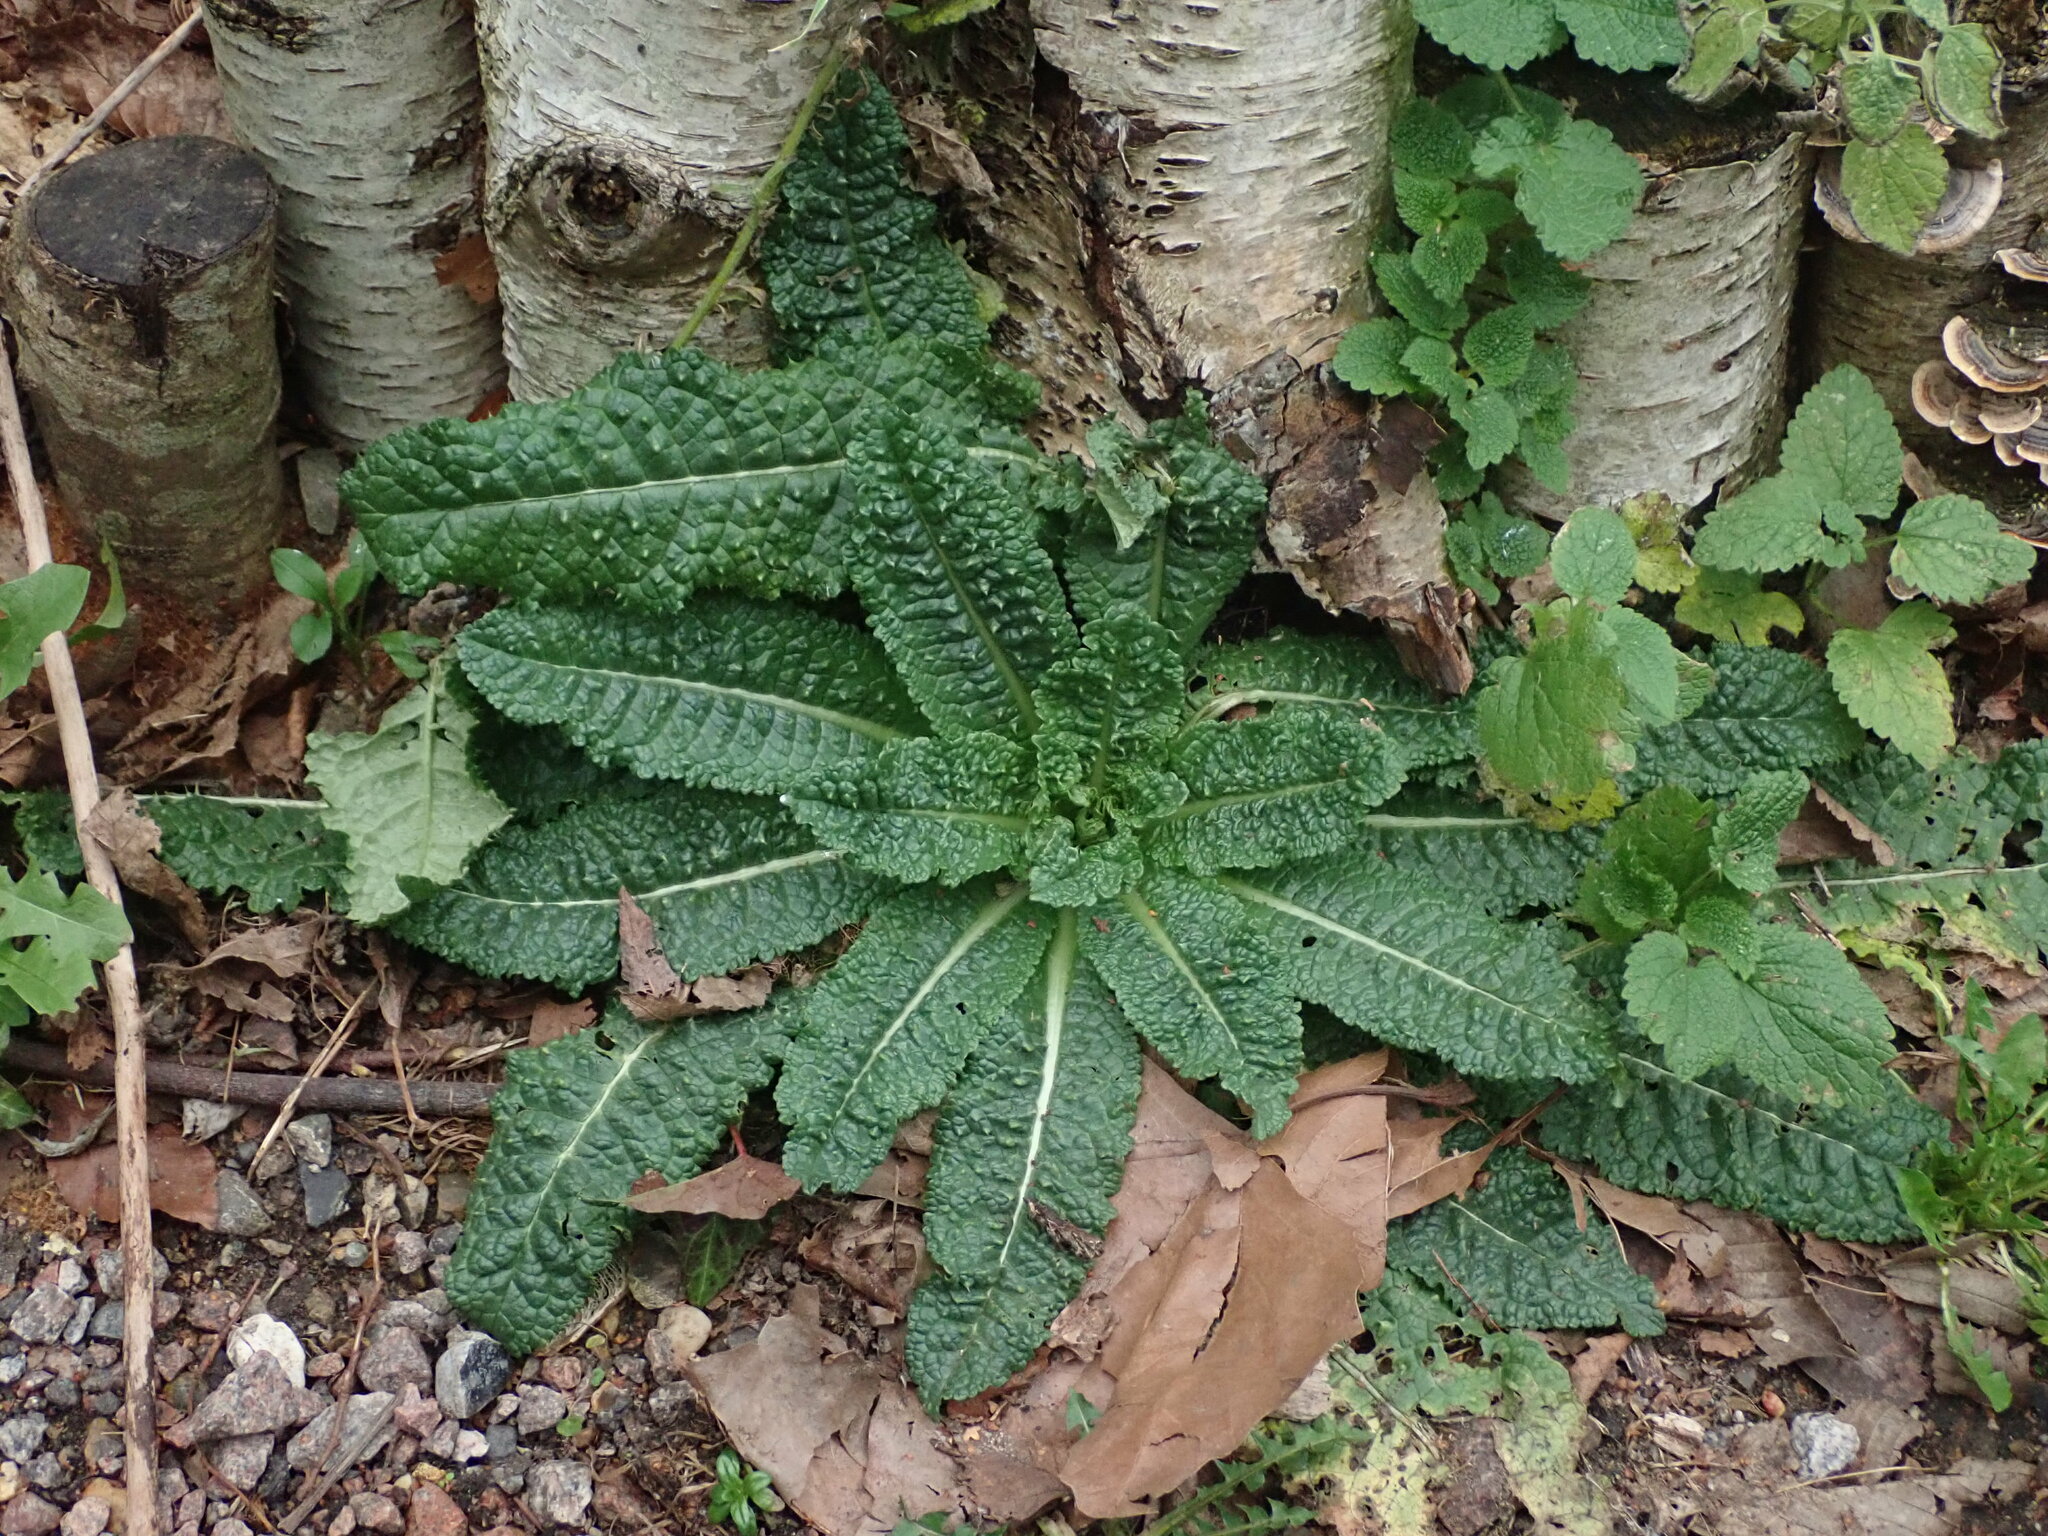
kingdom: Plantae
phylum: Tracheophyta
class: Magnoliopsida
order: Dipsacales
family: Caprifoliaceae
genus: Dipsacus
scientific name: Dipsacus fullonum
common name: Teasel
